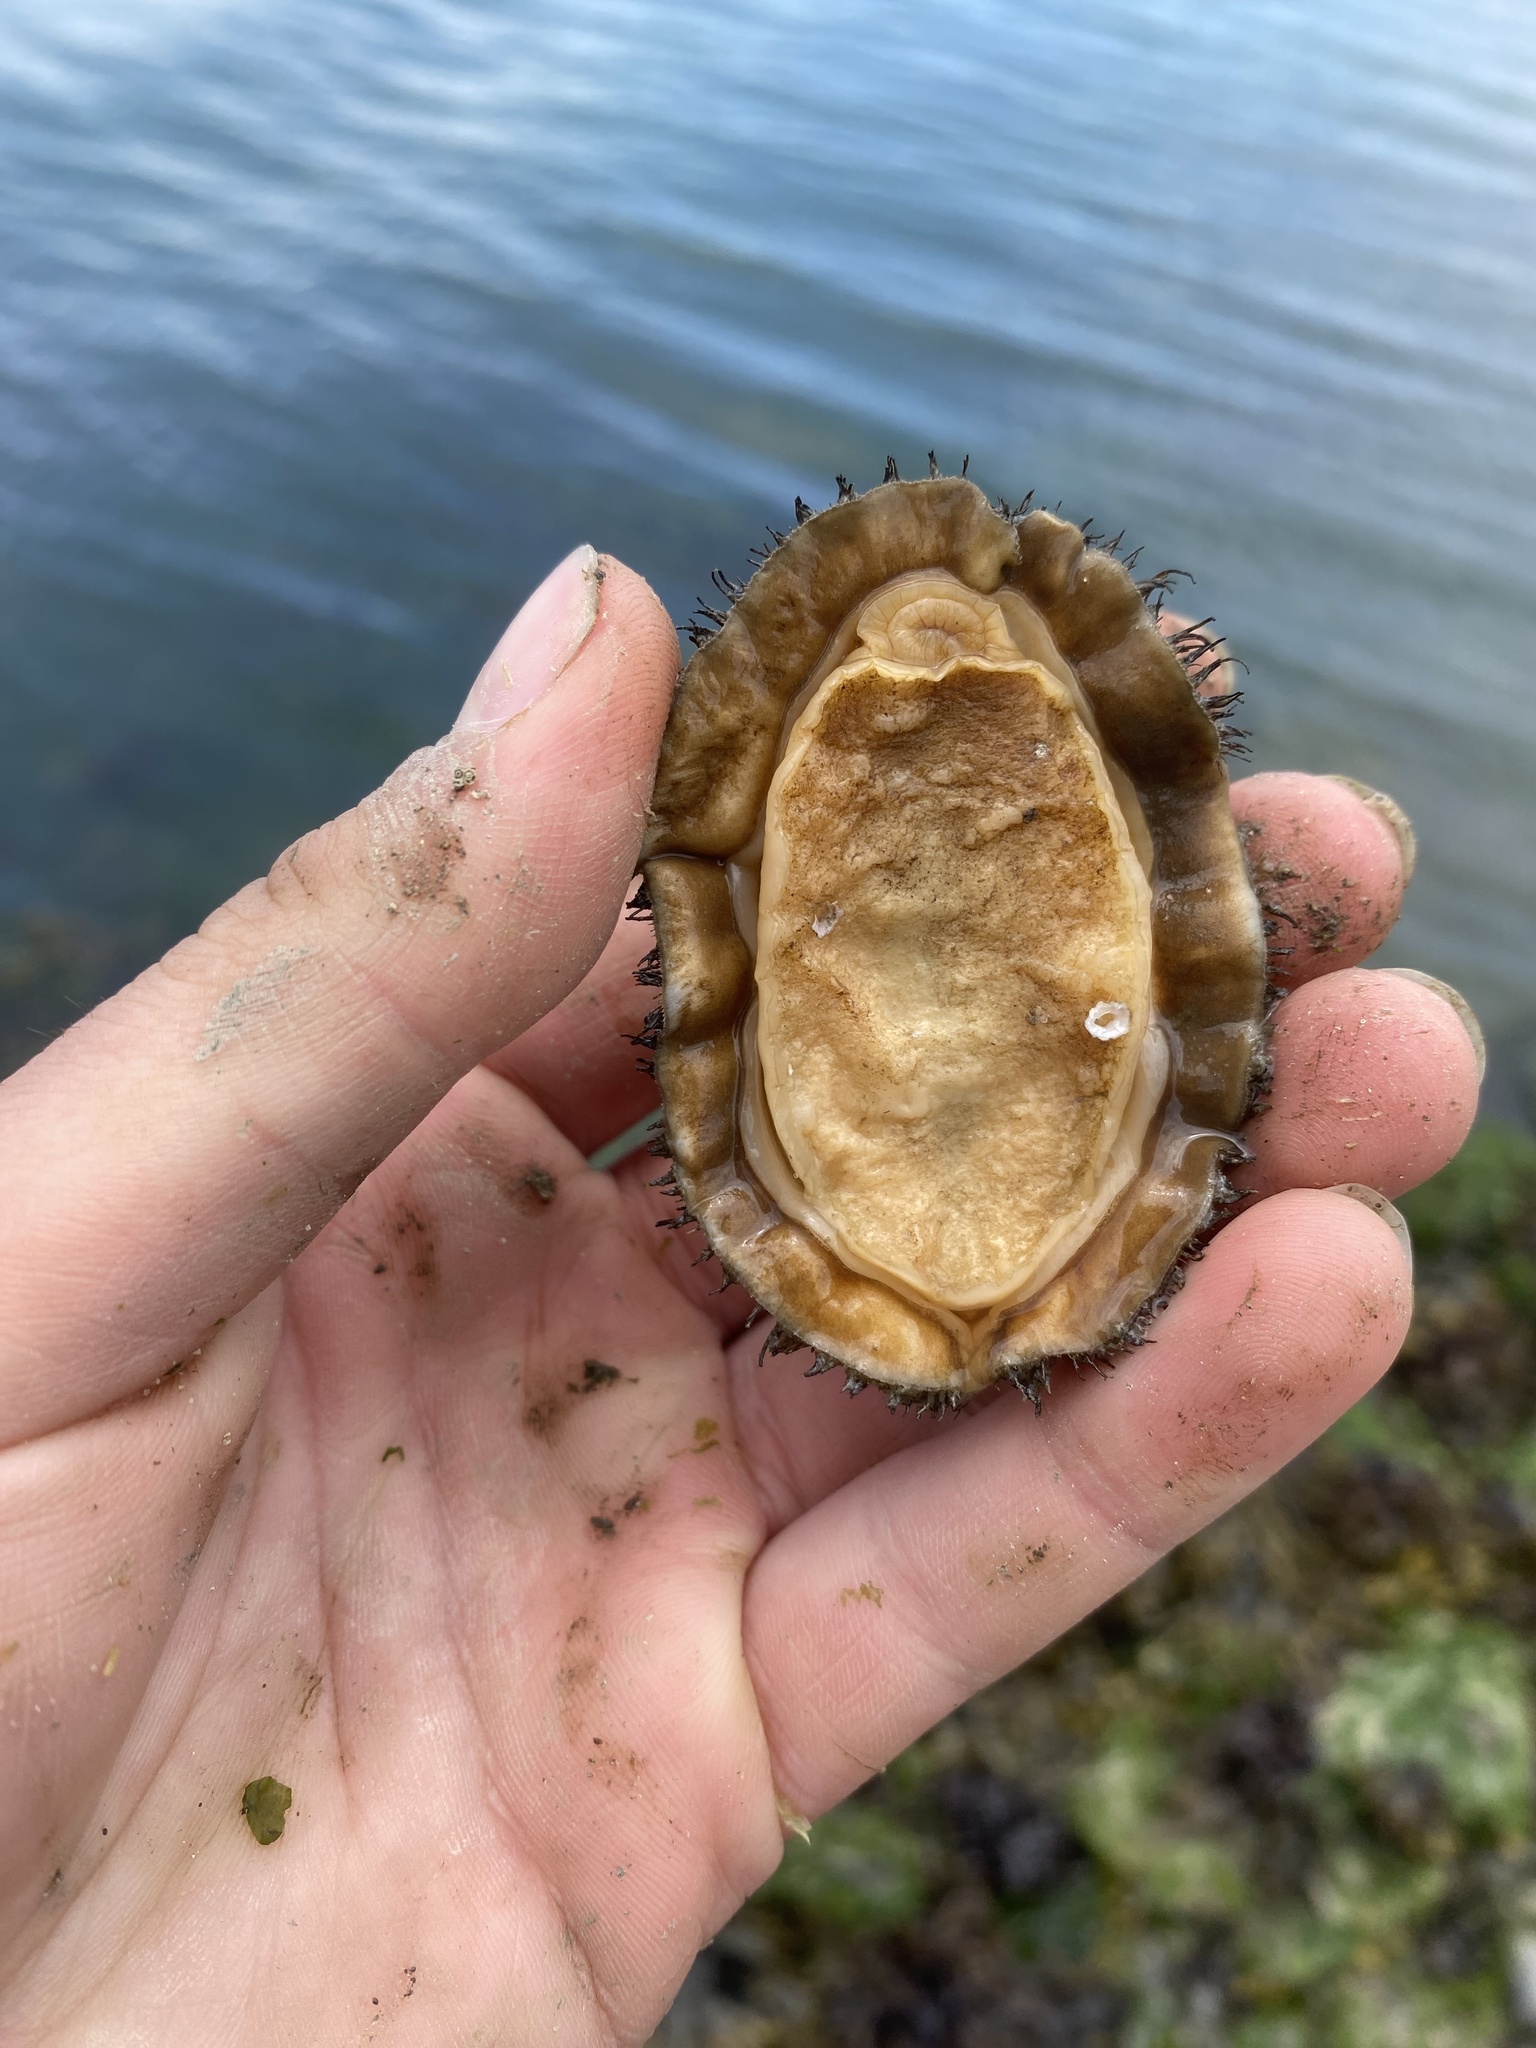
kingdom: Animalia
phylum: Mollusca
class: Polyplacophora
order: Chitonida
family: Mopaliidae
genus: Mopalia
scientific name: Mopalia muscosa
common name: Mossy chiton
